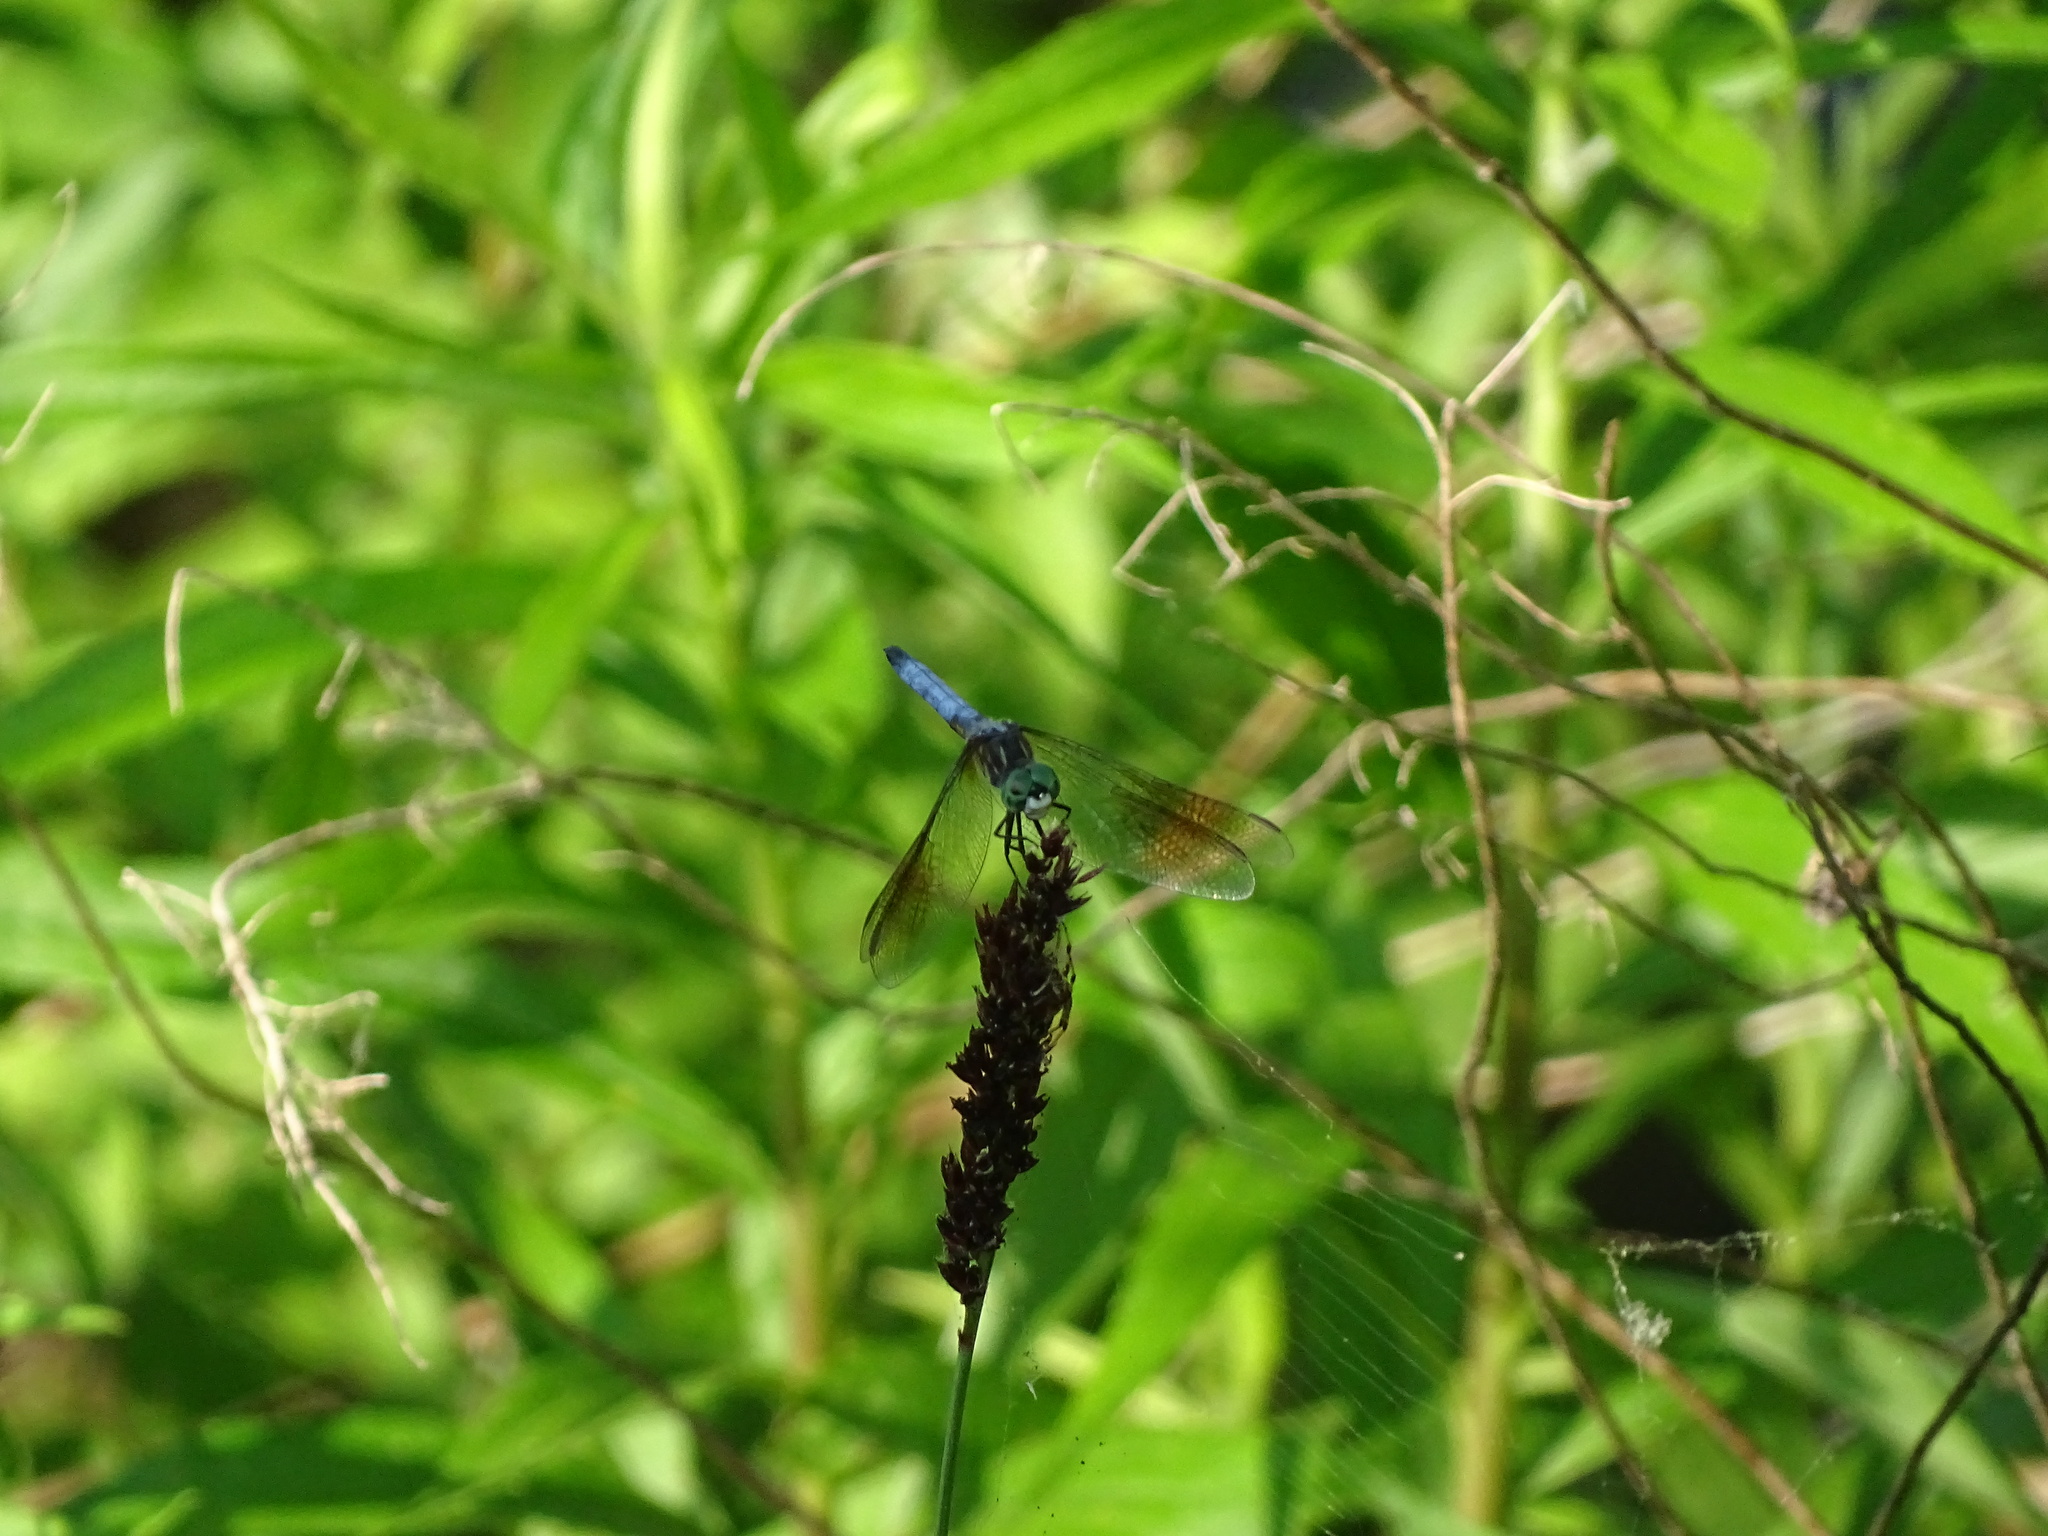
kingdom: Animalia
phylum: Arthropoda
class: Insecta
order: Odonata
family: Libellulidae
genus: Pachydiplax
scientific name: Pachydiplax longipennis
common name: Blue dasher
